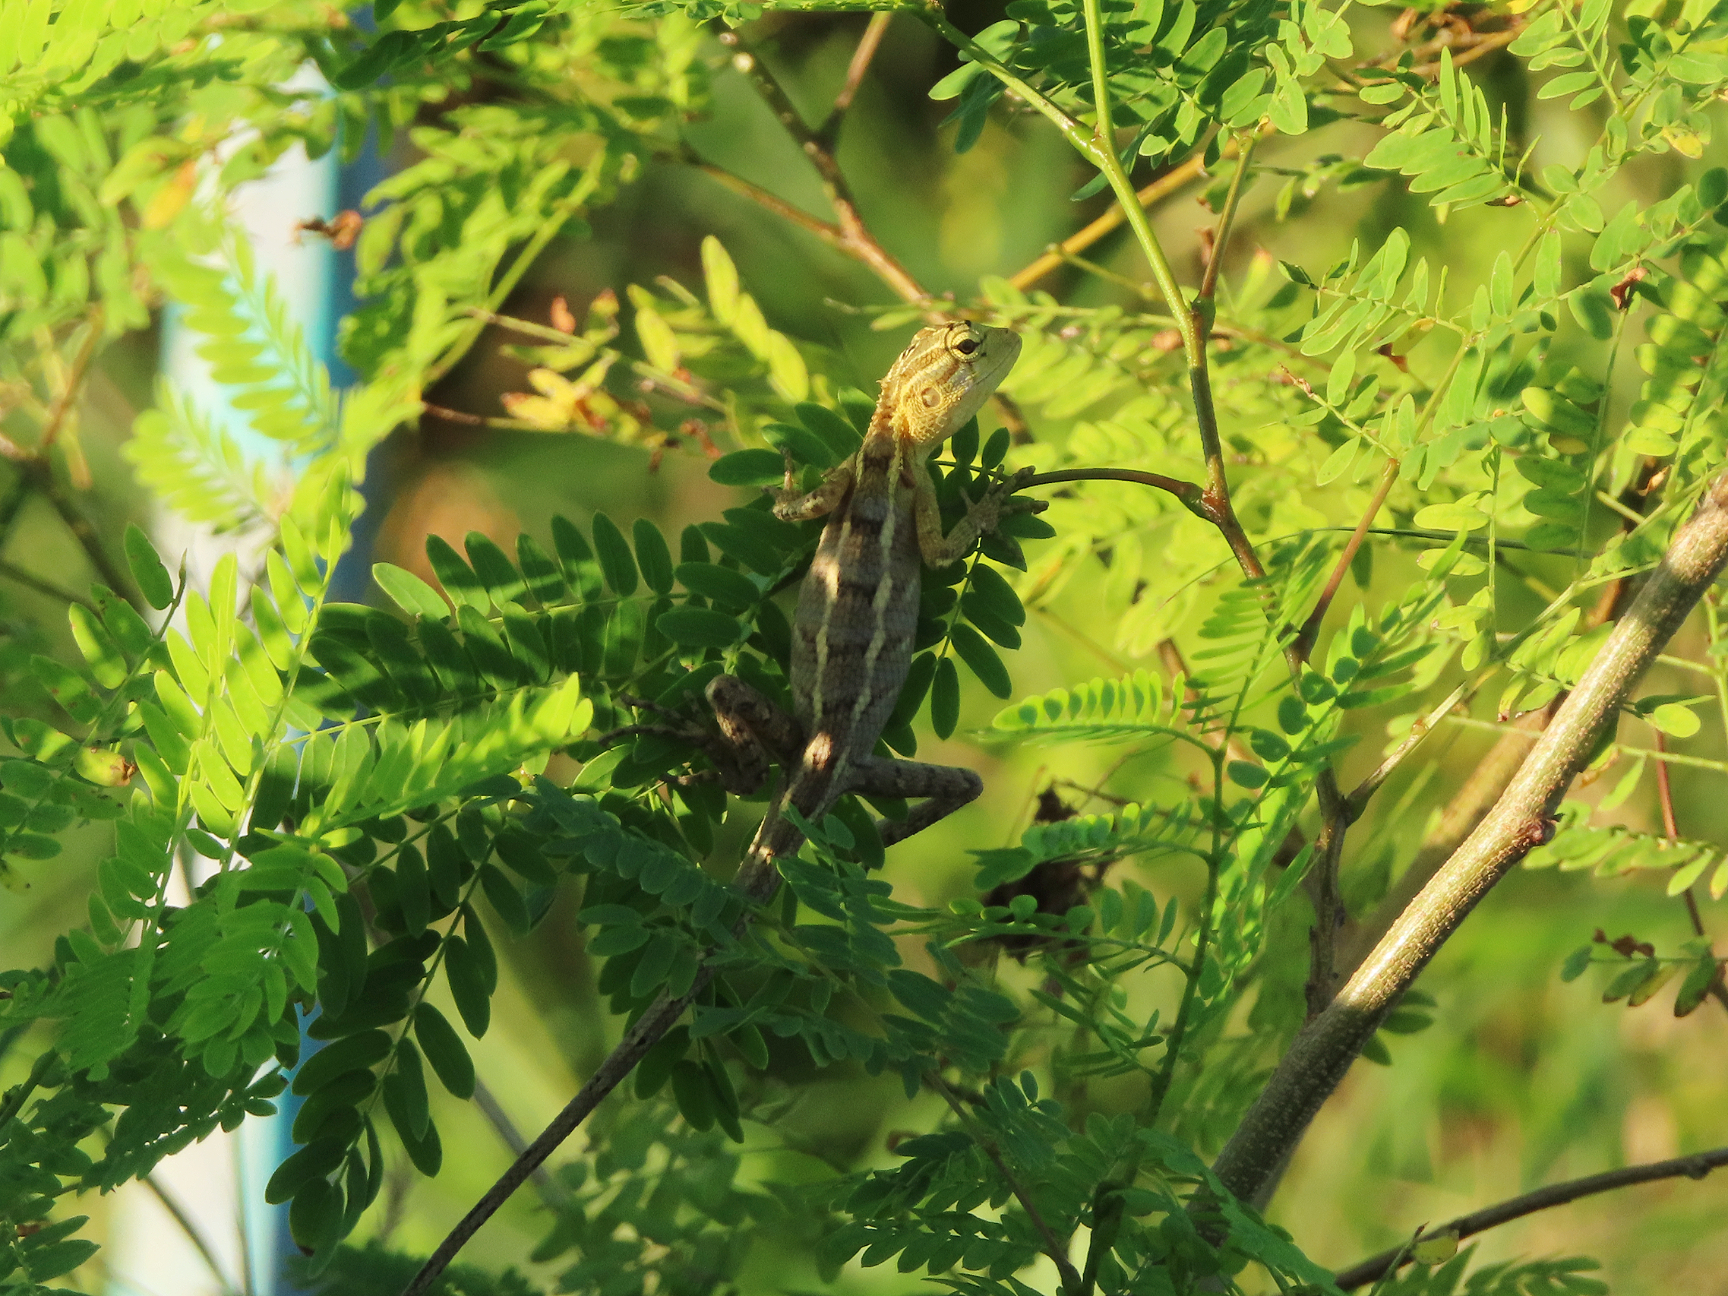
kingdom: Animalia
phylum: Chordata
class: Squamata
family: Agamidae
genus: Calotes
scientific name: Calotes versicolor
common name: Oriental garden lizard
